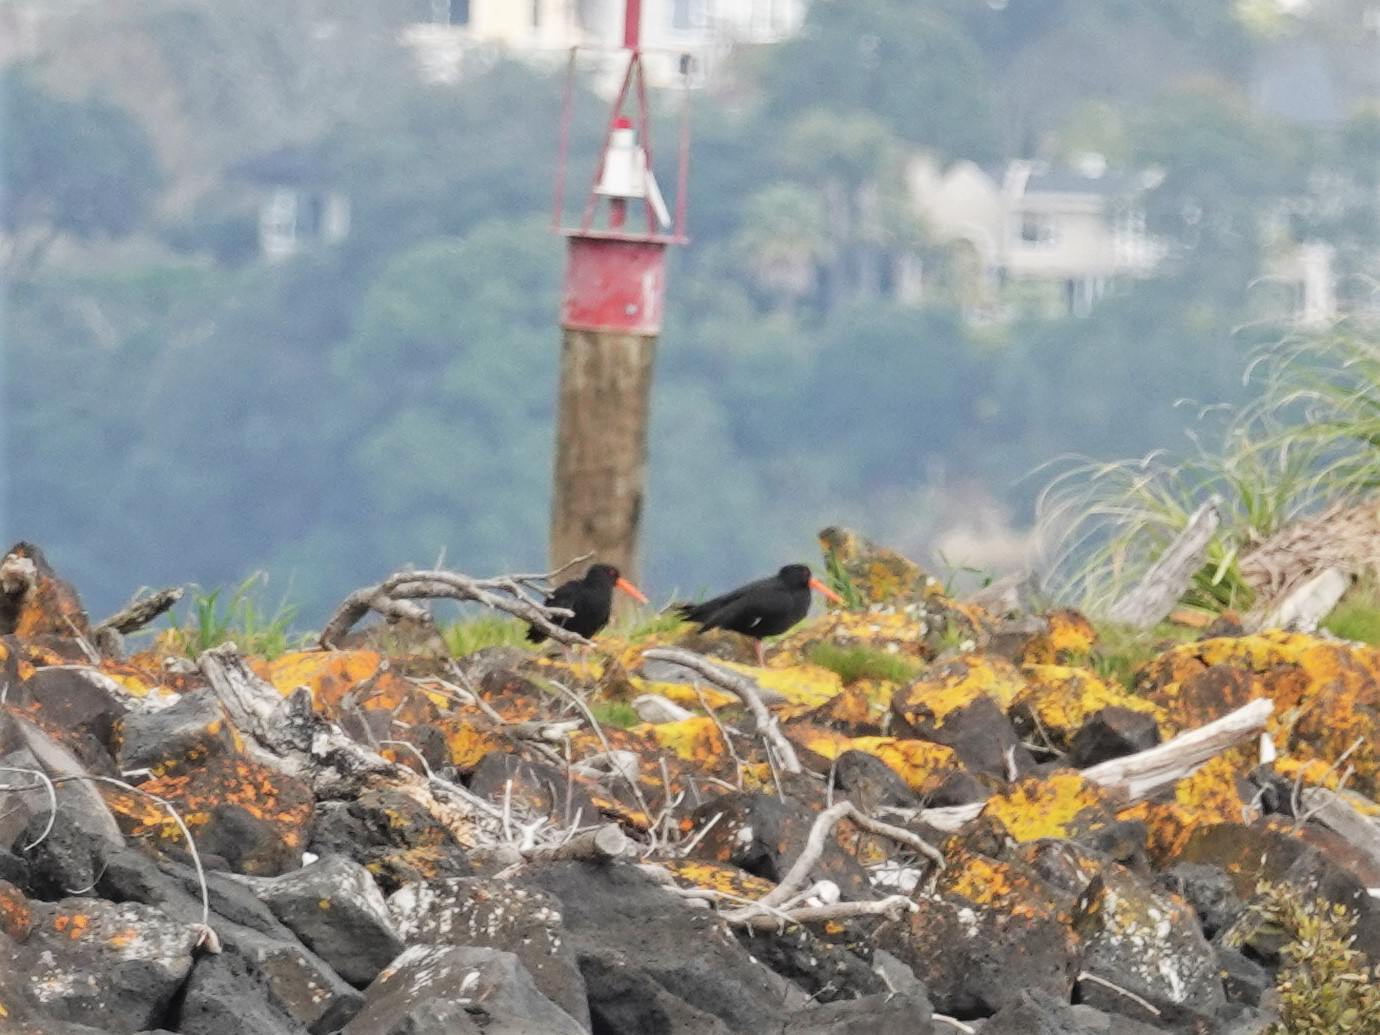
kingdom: Animalia
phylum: Chordata
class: Aves
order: Charadriiformes
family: Haematopodidae
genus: Haematopus
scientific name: Haematopus unicolor
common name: Variable oystercatcher
